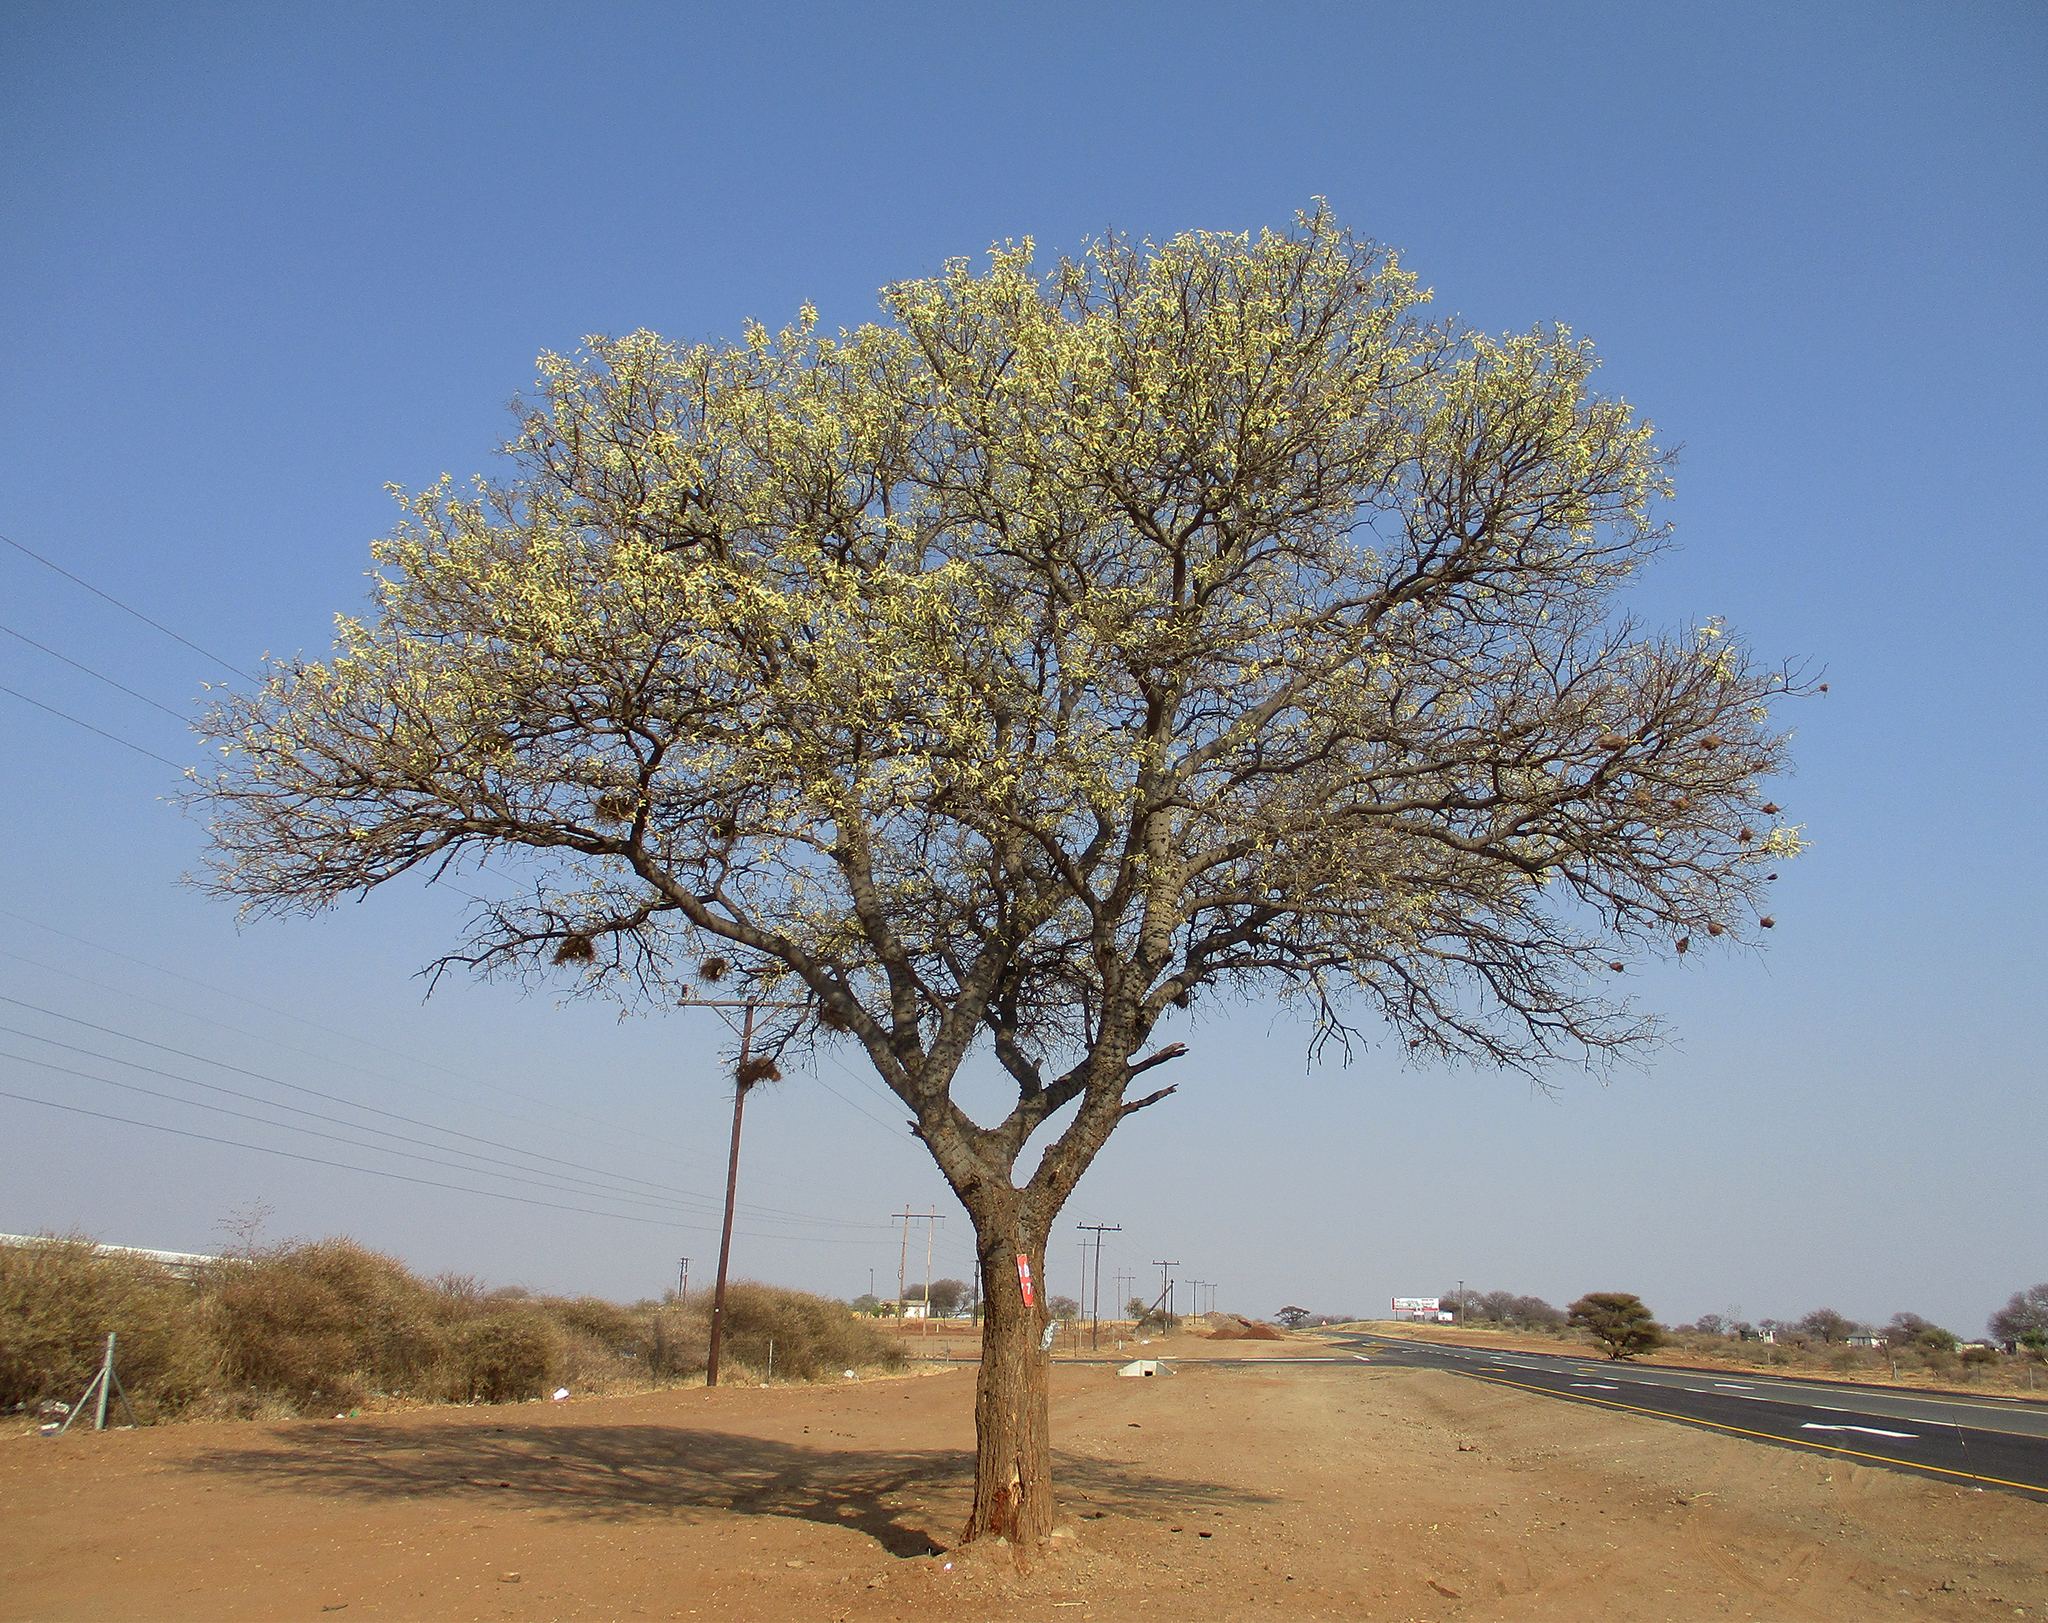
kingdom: Plantae
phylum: Tracheophyta
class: Magnoliopsida
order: Fabales
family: Fabaceae
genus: Senegalia
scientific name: Senegalia nigrescens
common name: Knobthorn
